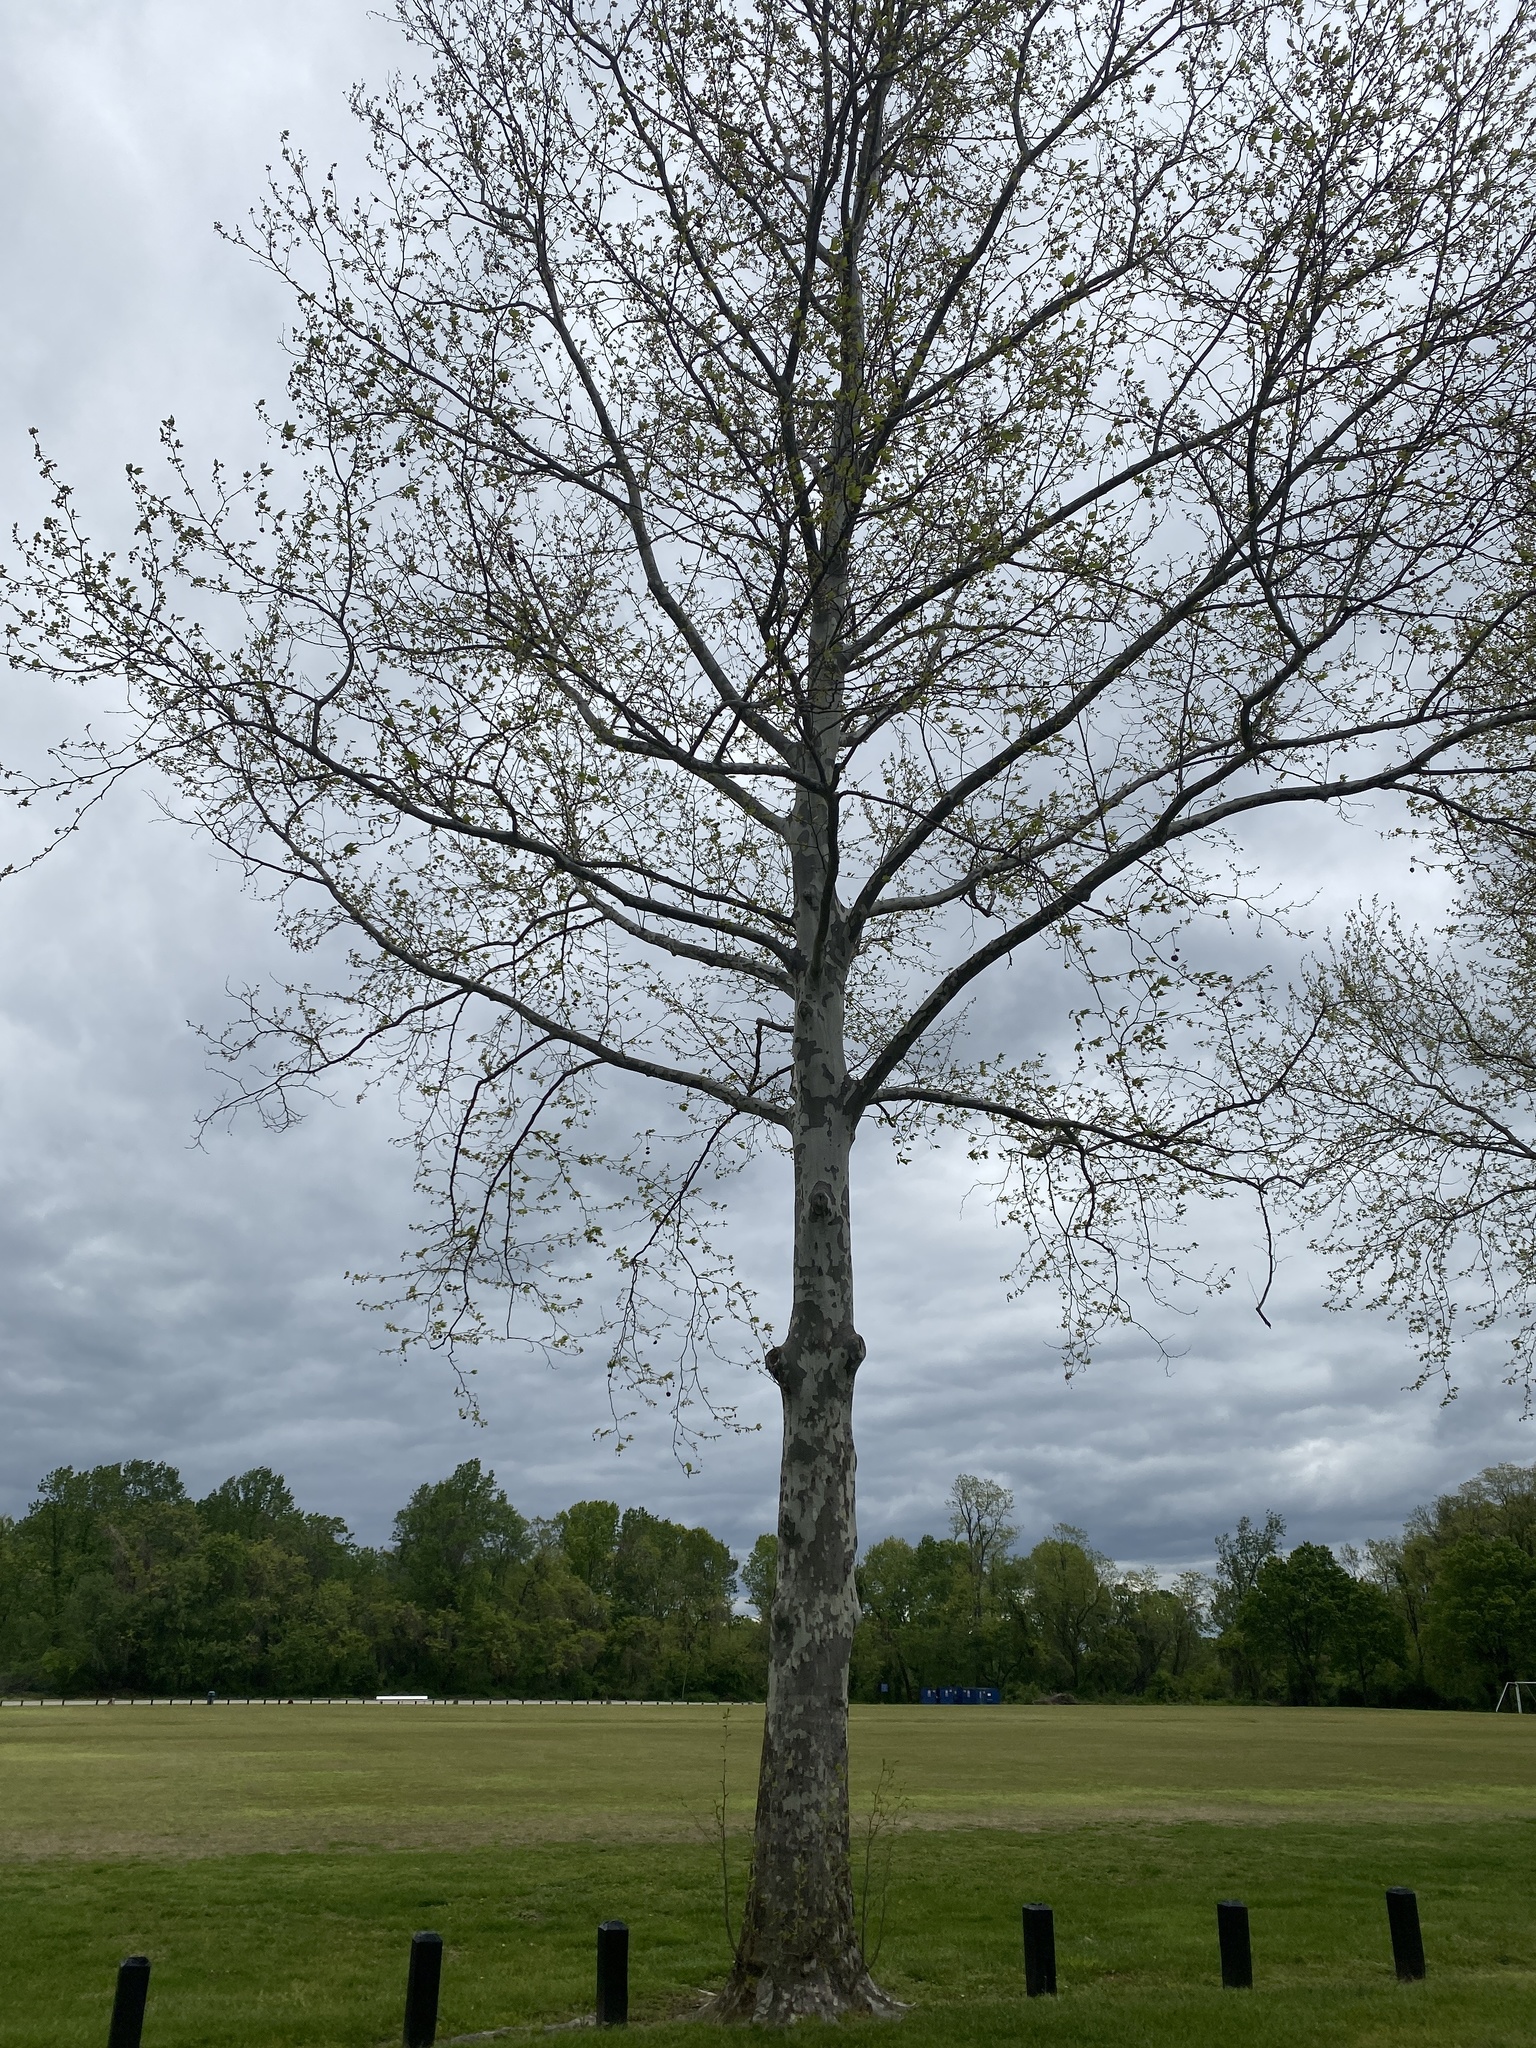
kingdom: Plantae
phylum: Tracheophyta
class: Magnoliopsida
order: Proteales
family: Platanaceae
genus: Platanus
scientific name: Platanus occidentalis
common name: American sycamore
